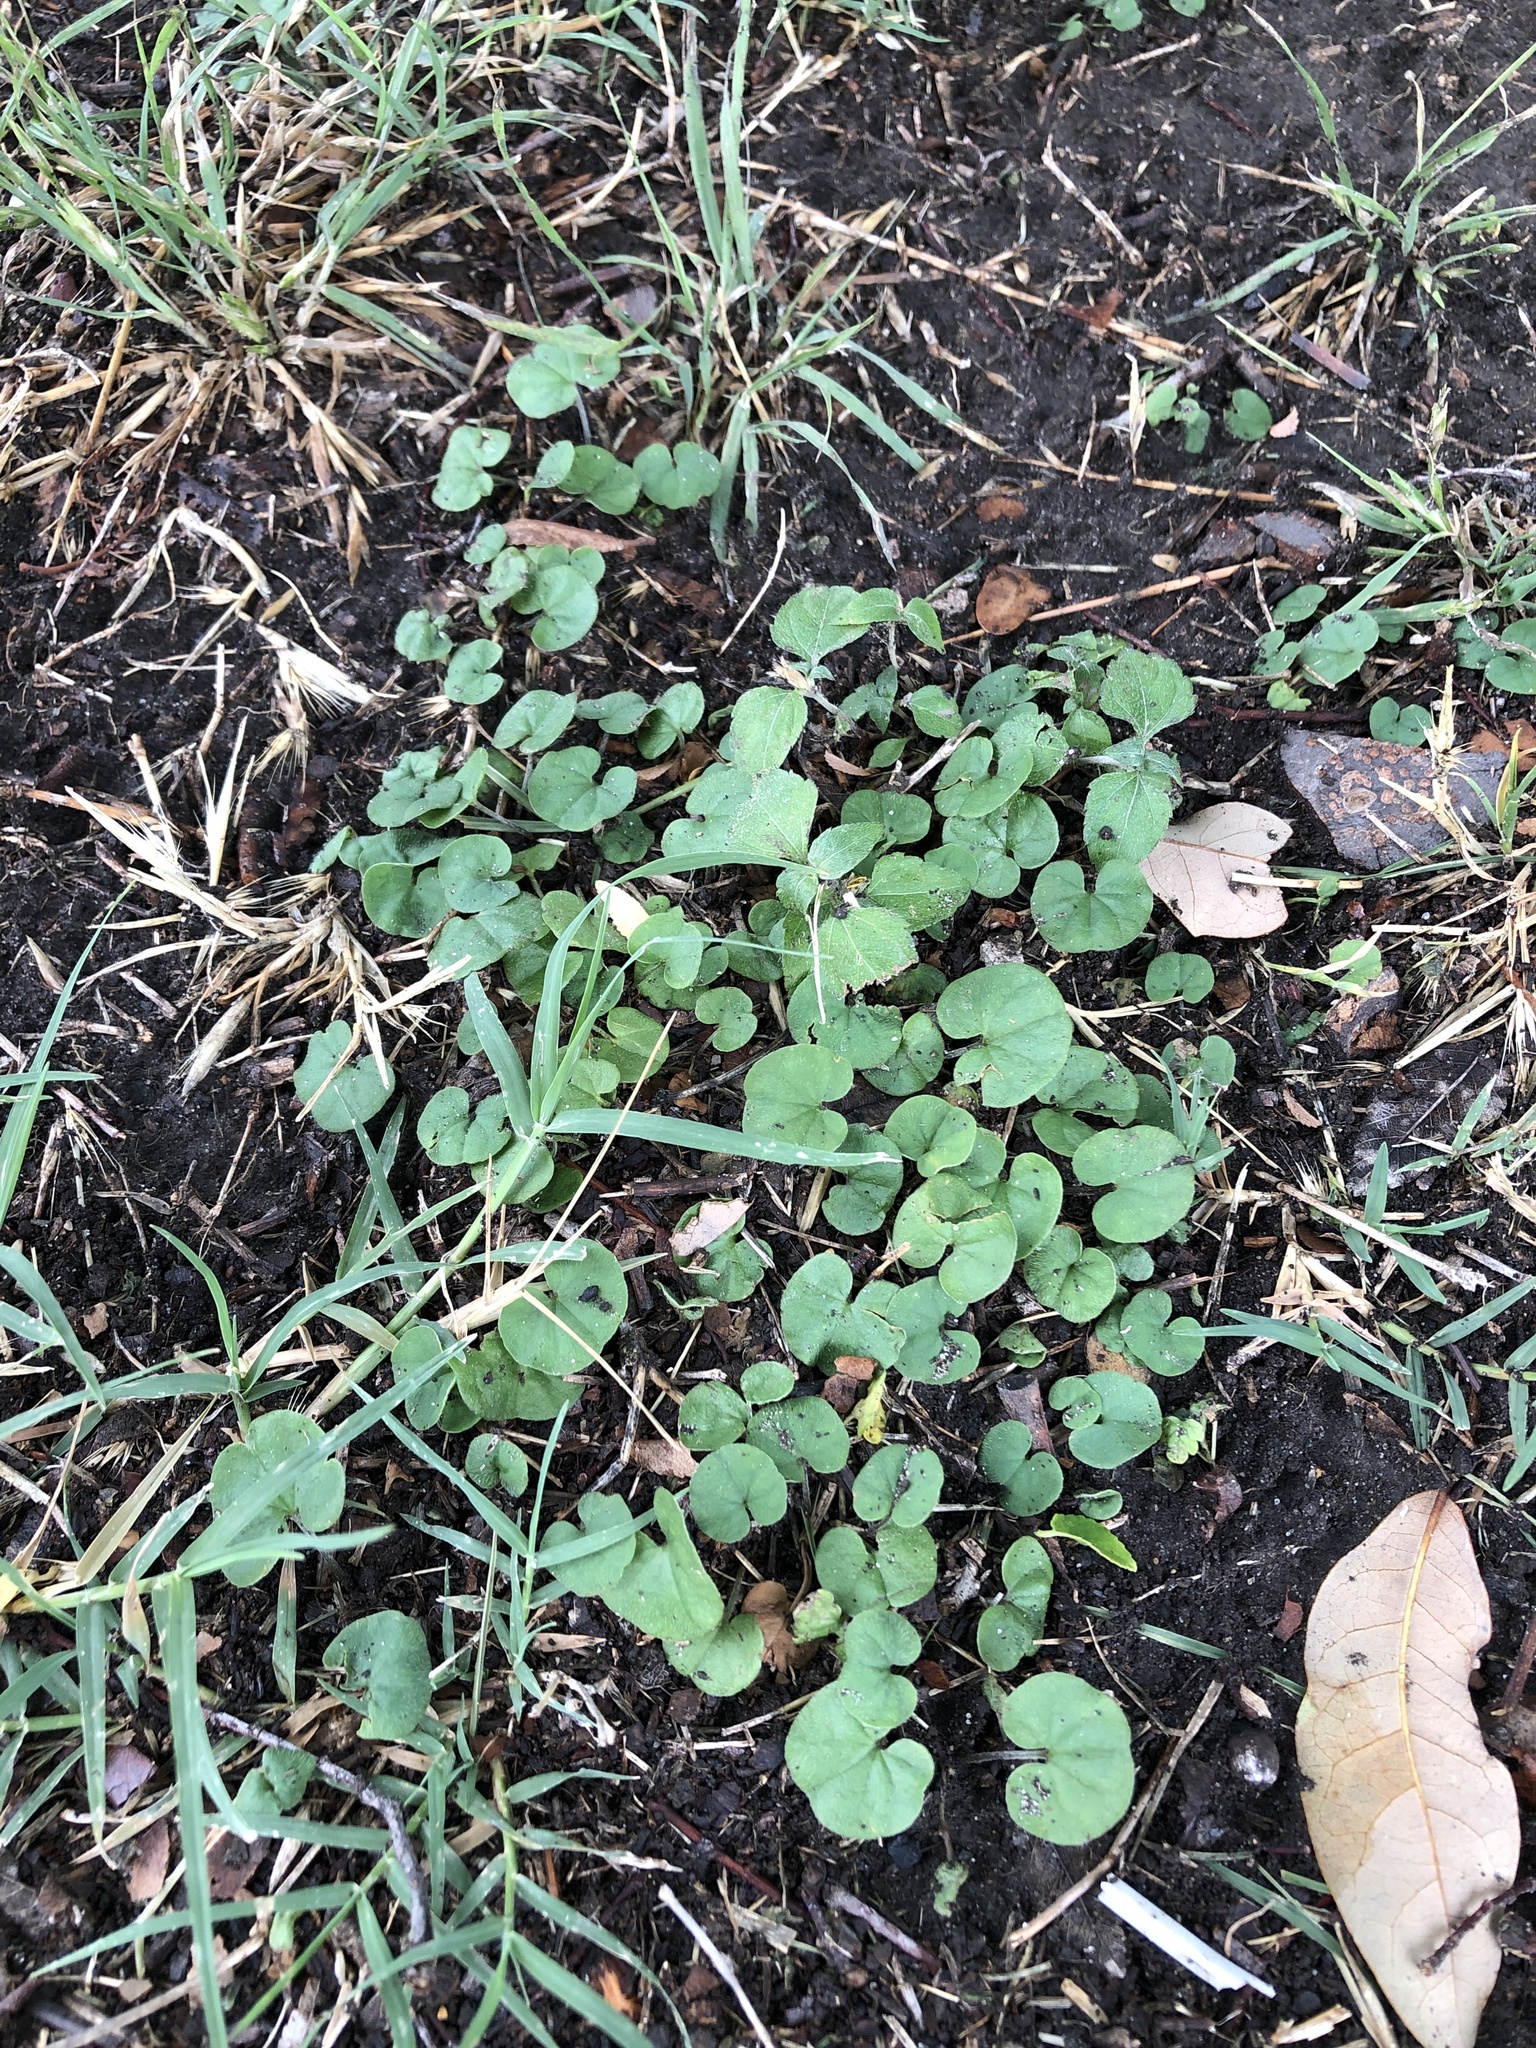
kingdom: Plantae
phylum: Tracheophyta
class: Magnoliopsida
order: Solanales
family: Convolvulaceae
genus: Dichondra
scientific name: Dichondra carolinensis
